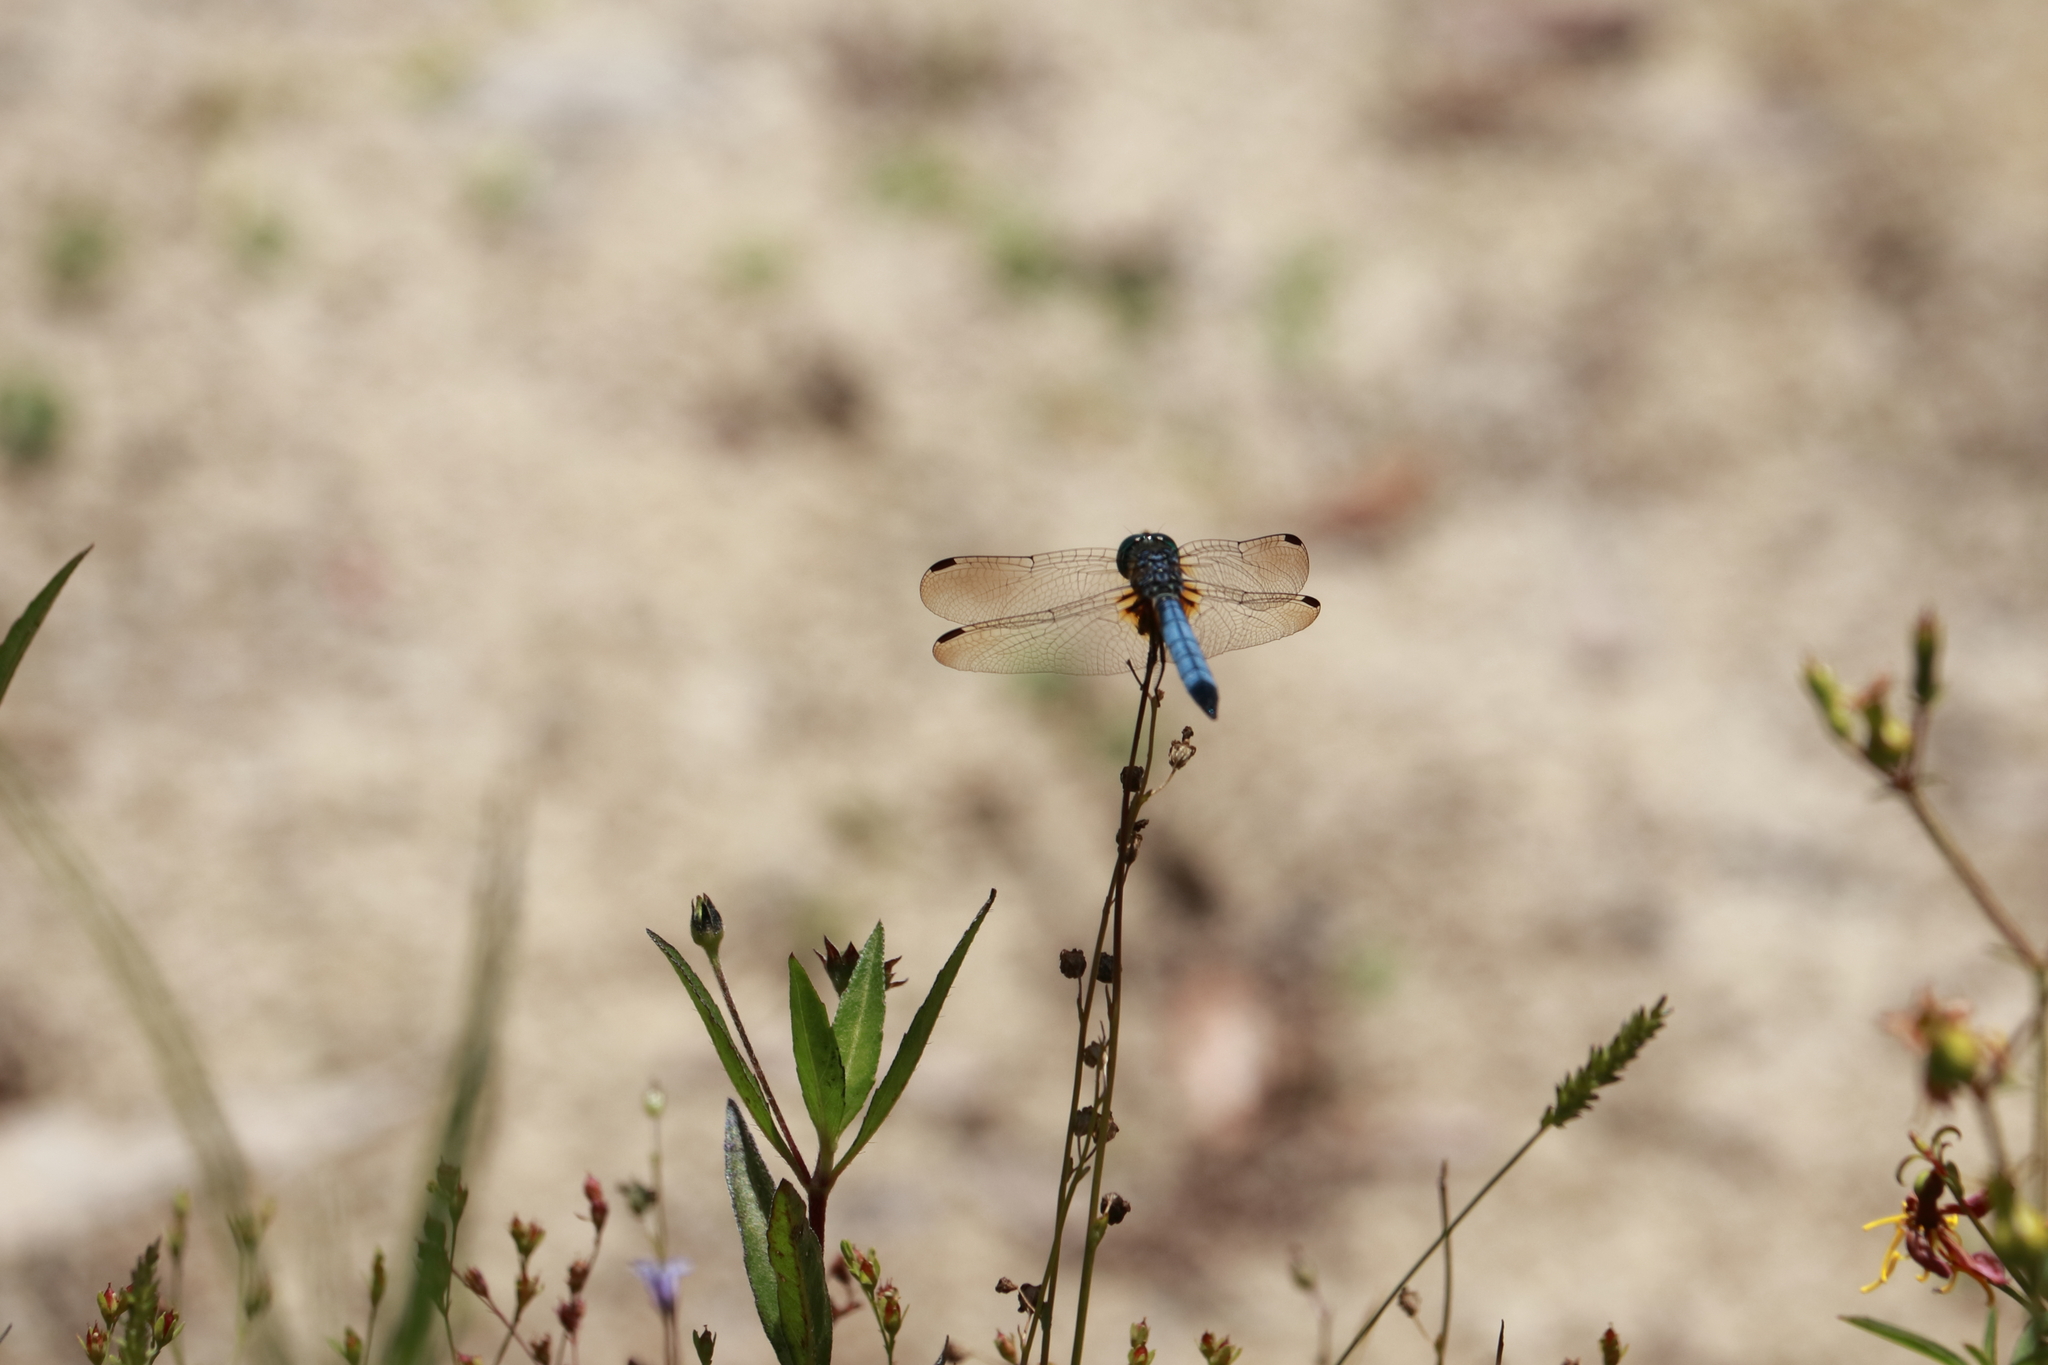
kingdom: Animalia
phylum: Arthropoda
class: Insecta
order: Odonata
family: Libellulidae
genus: Pachydiplax
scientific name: Pachydiplax longipennis
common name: Blue dasher
